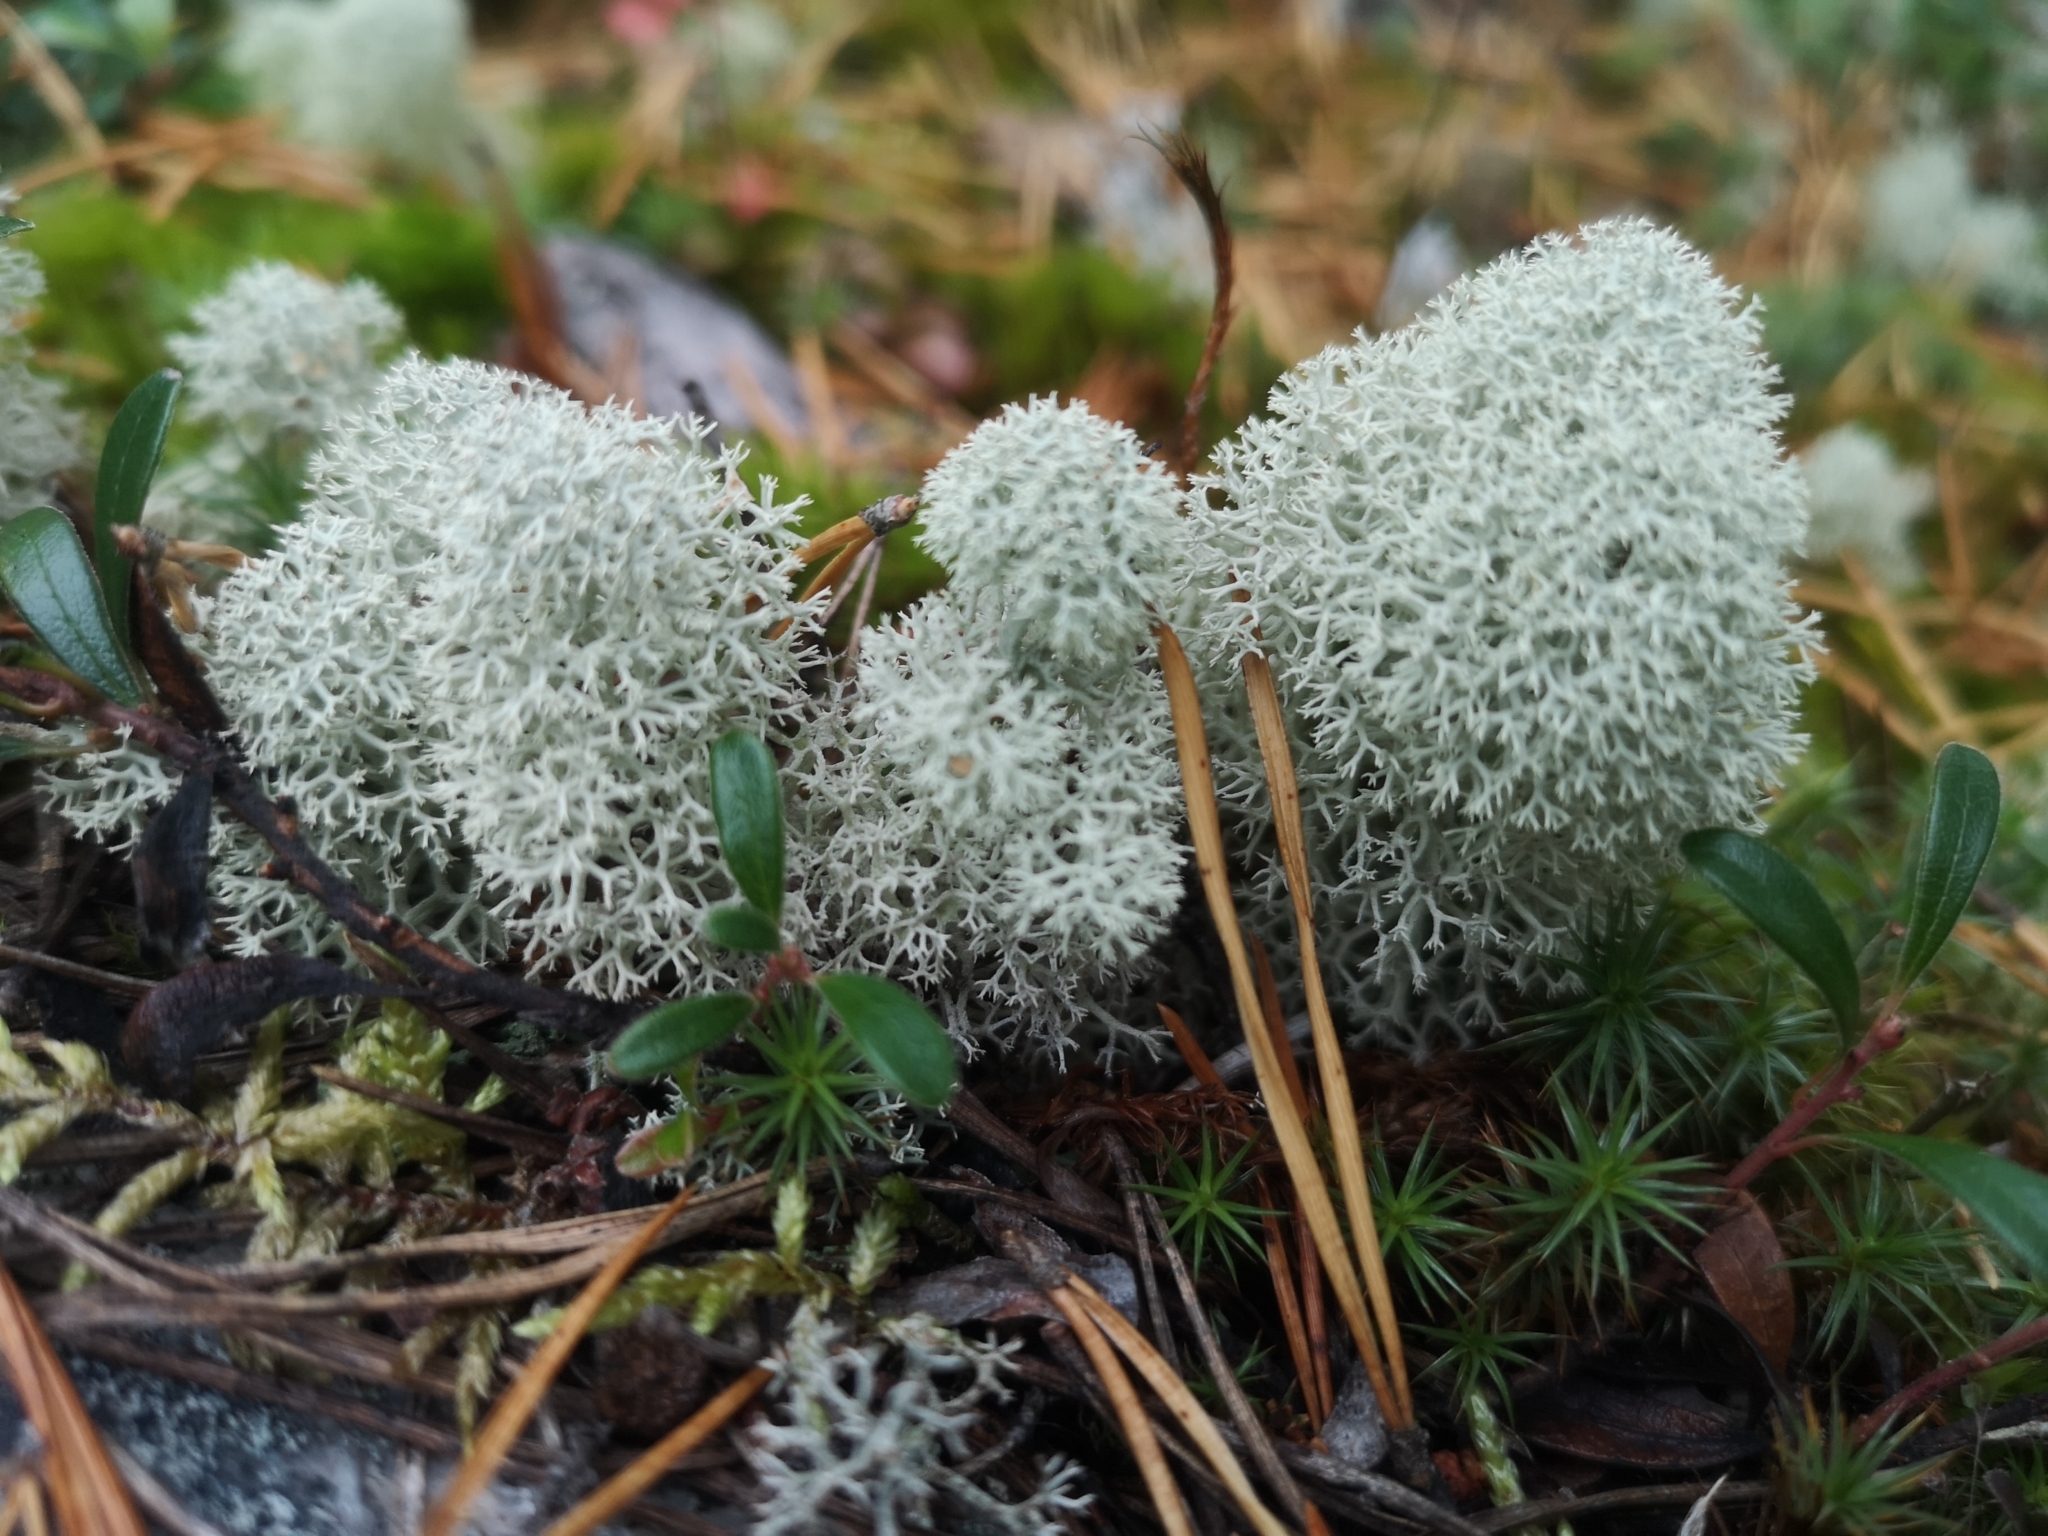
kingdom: Fungi
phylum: Ascomycota
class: Lecanoromycetes
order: Lecanorales
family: Cladoniaceae
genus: Cladonia
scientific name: Cladonia stellaris
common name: Star-tipped reindeer lichen
